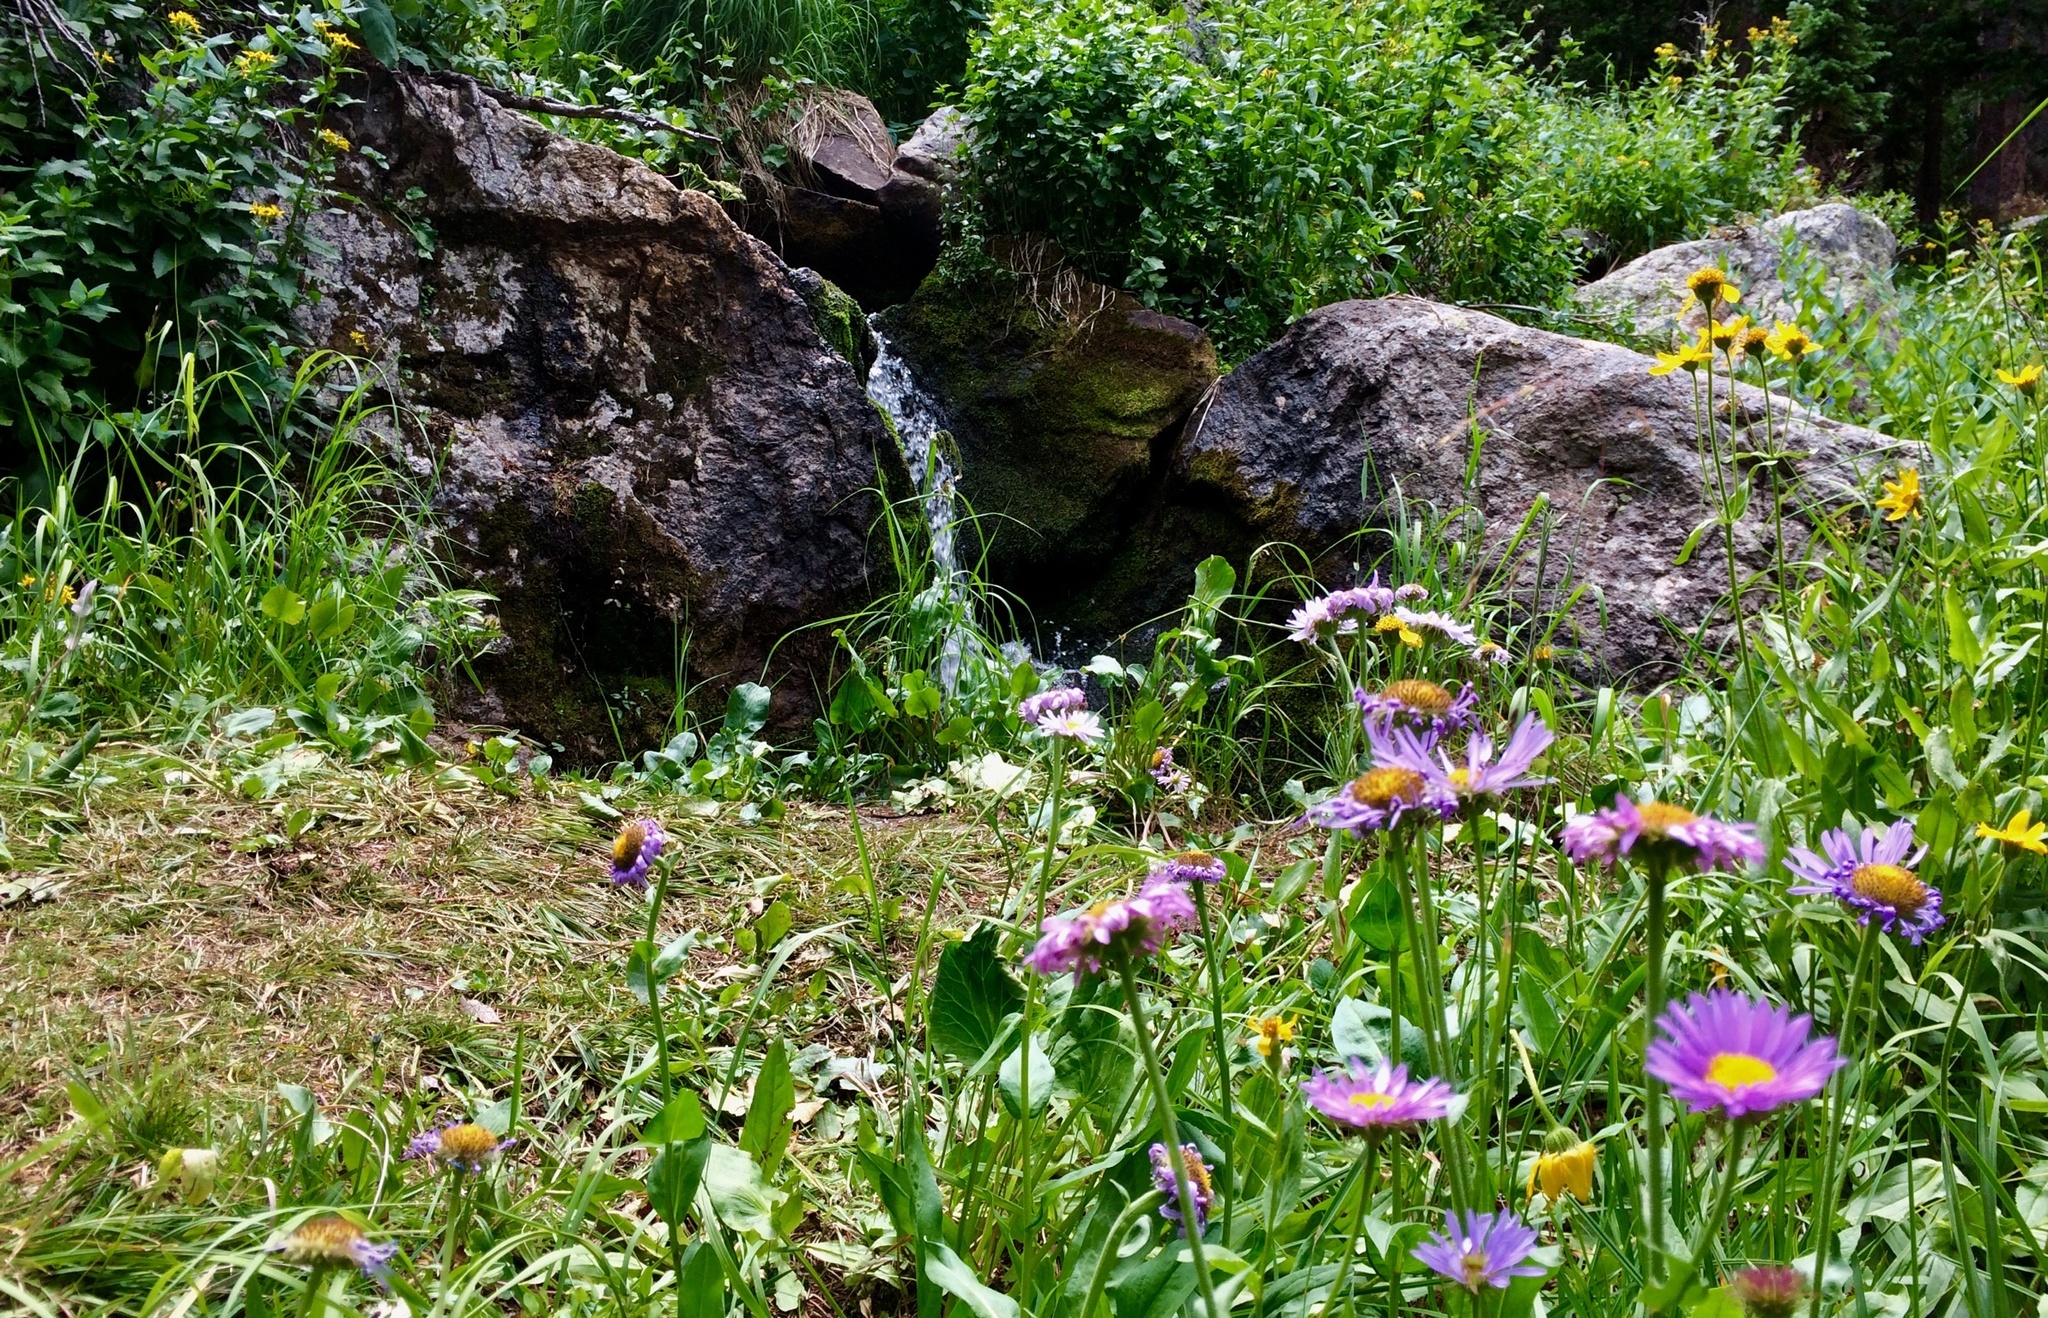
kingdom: Plantae
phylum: Tracheophyta
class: Magnoliopsida
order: Asterales
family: Asteraceae
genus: Erigeron
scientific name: Erigeron glacialis
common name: Subalpine fleabane
